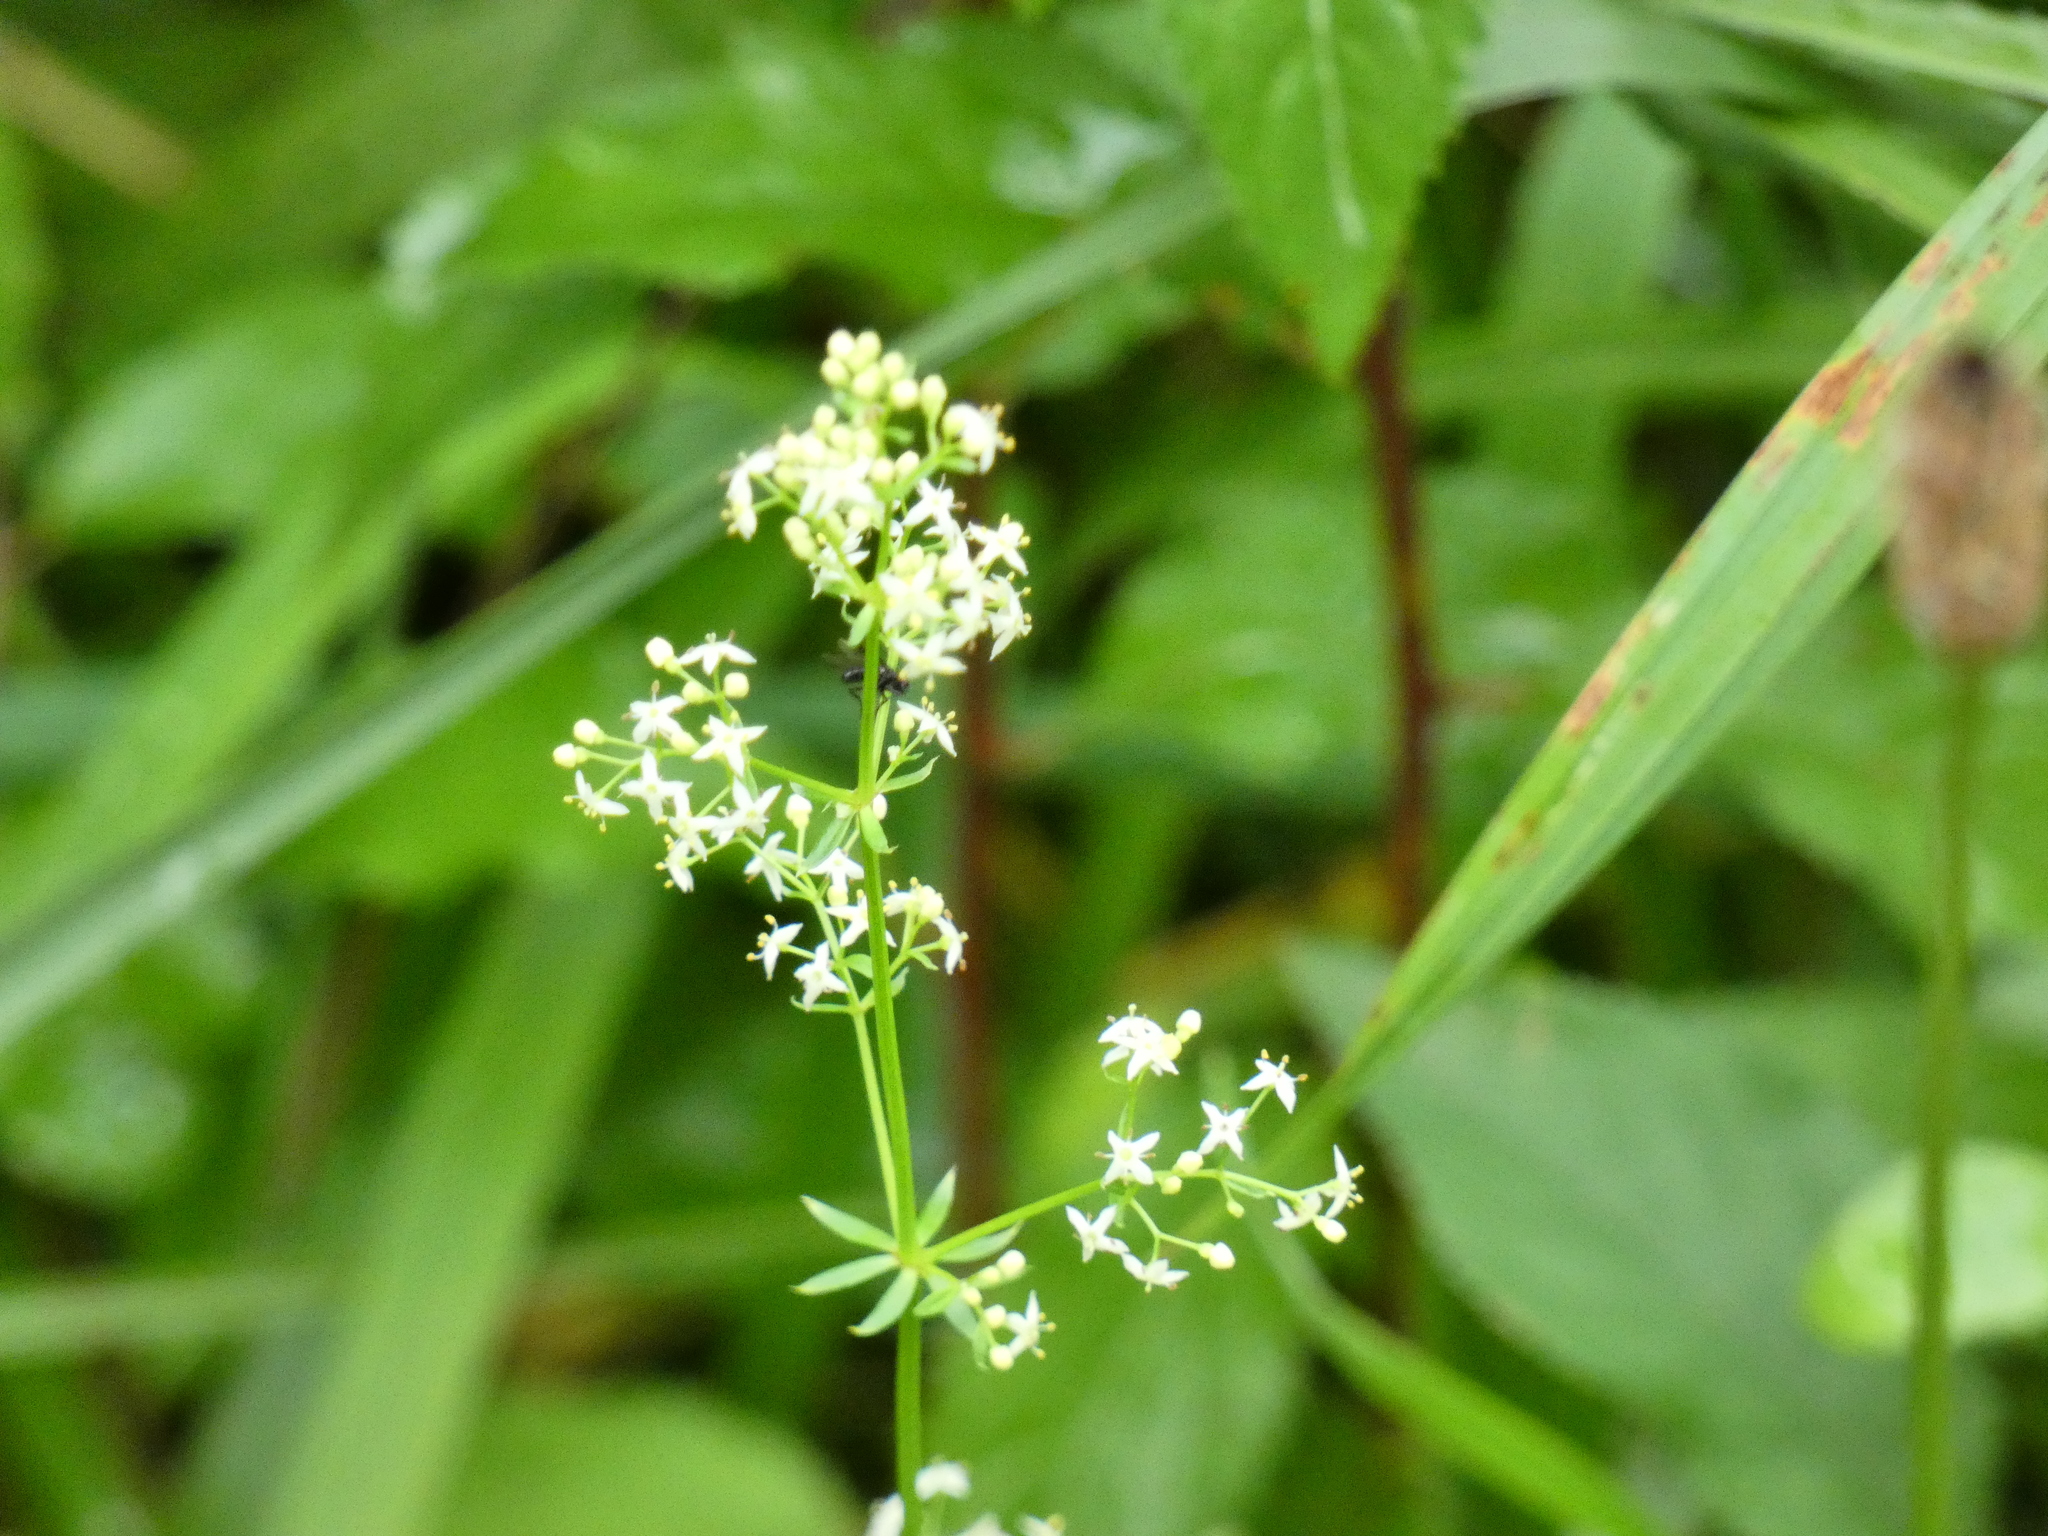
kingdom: Plantae
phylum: Tracheophyta
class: Magnoliopsida
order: Gentianales
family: Rubiaceae
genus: Galium
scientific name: Galium album
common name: White bedstraw
